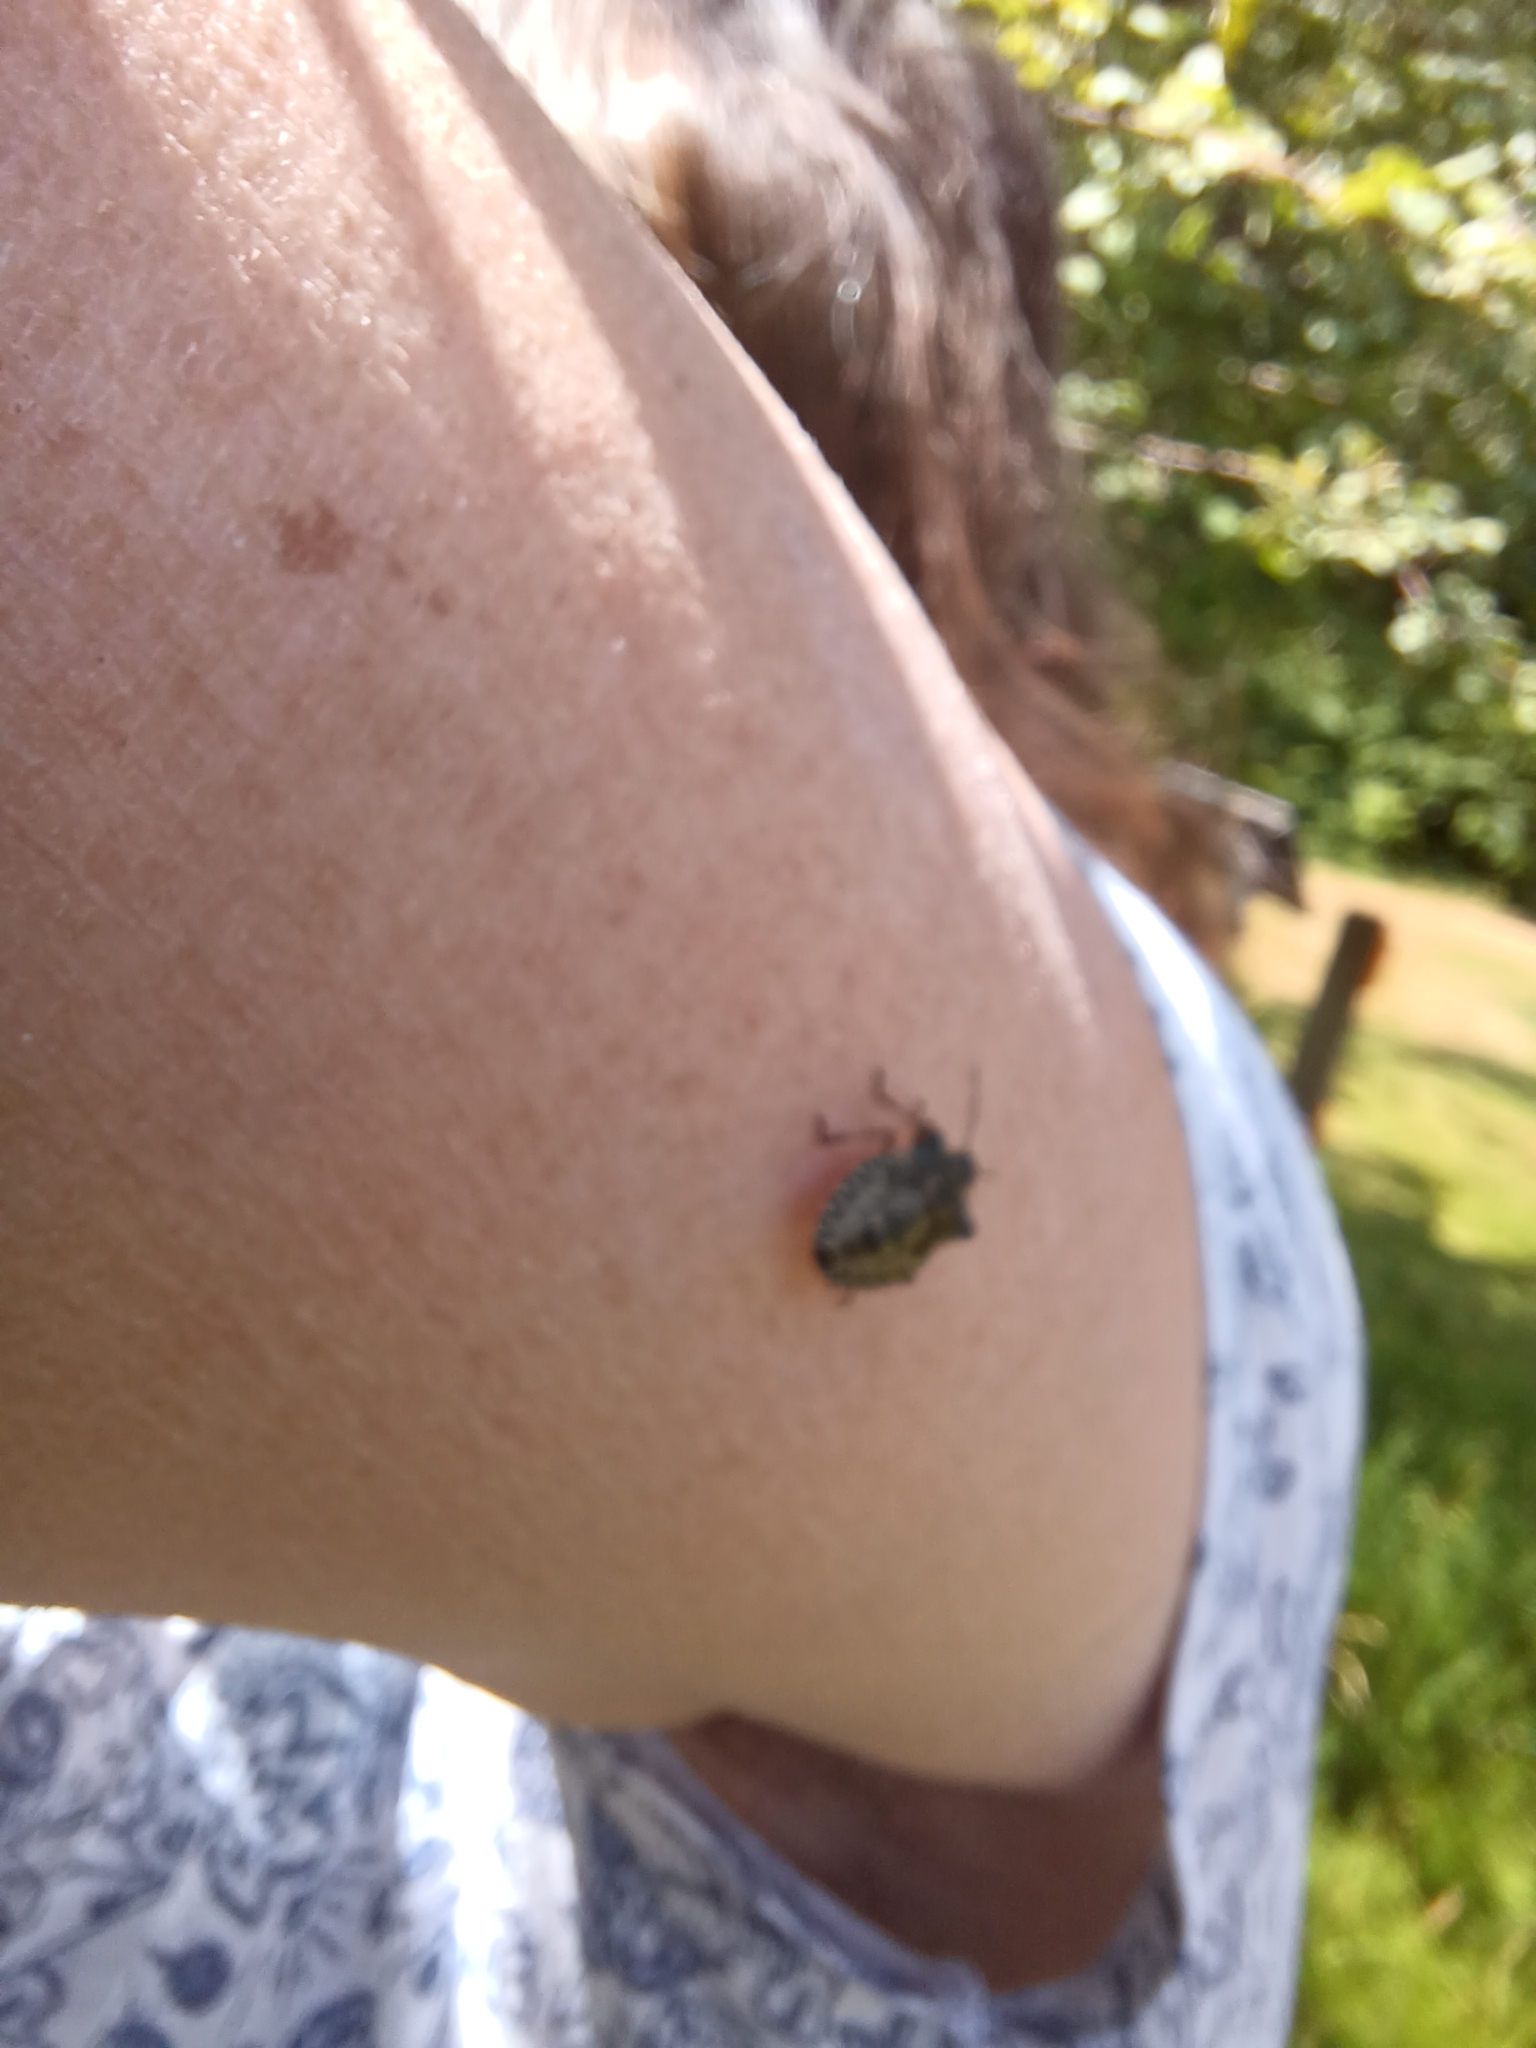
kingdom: Animalia
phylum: Arthropoda
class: Insecta
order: Hemiptera
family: Pentatomidae
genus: Pentatoma
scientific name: Pentatoma rufipes
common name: Forest bug
